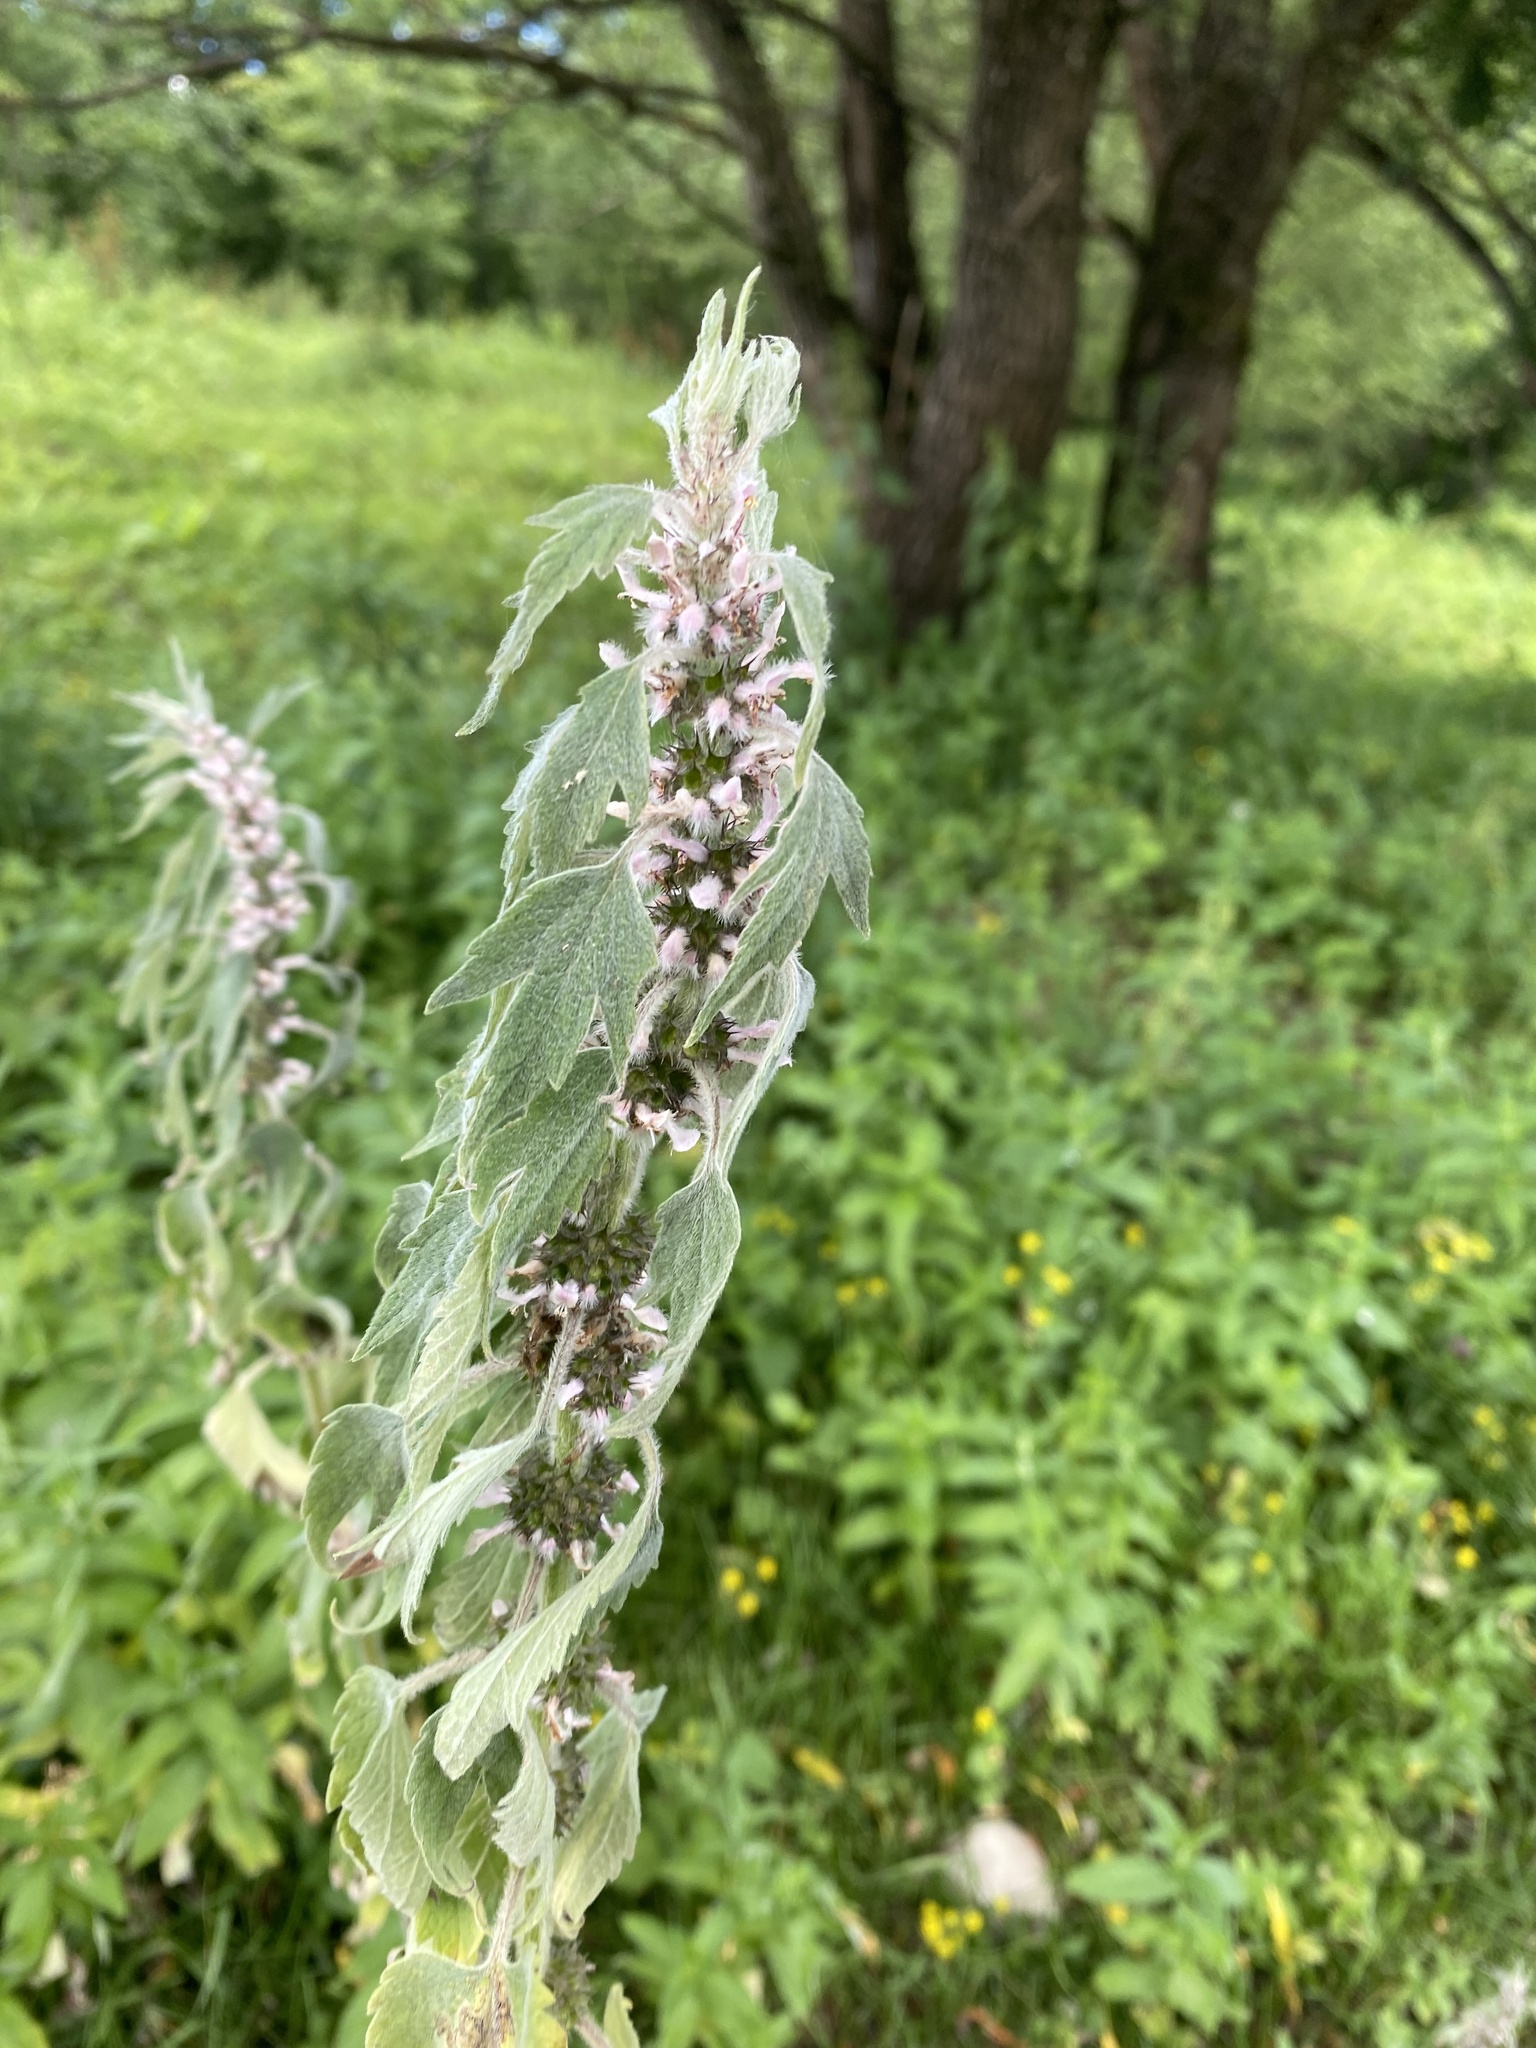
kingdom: Plantae
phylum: Tracheophyta
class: Magnoliopsida
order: Lamiales
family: Lamiaceae
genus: Leonurus
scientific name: Leonurus quinquelobatus
